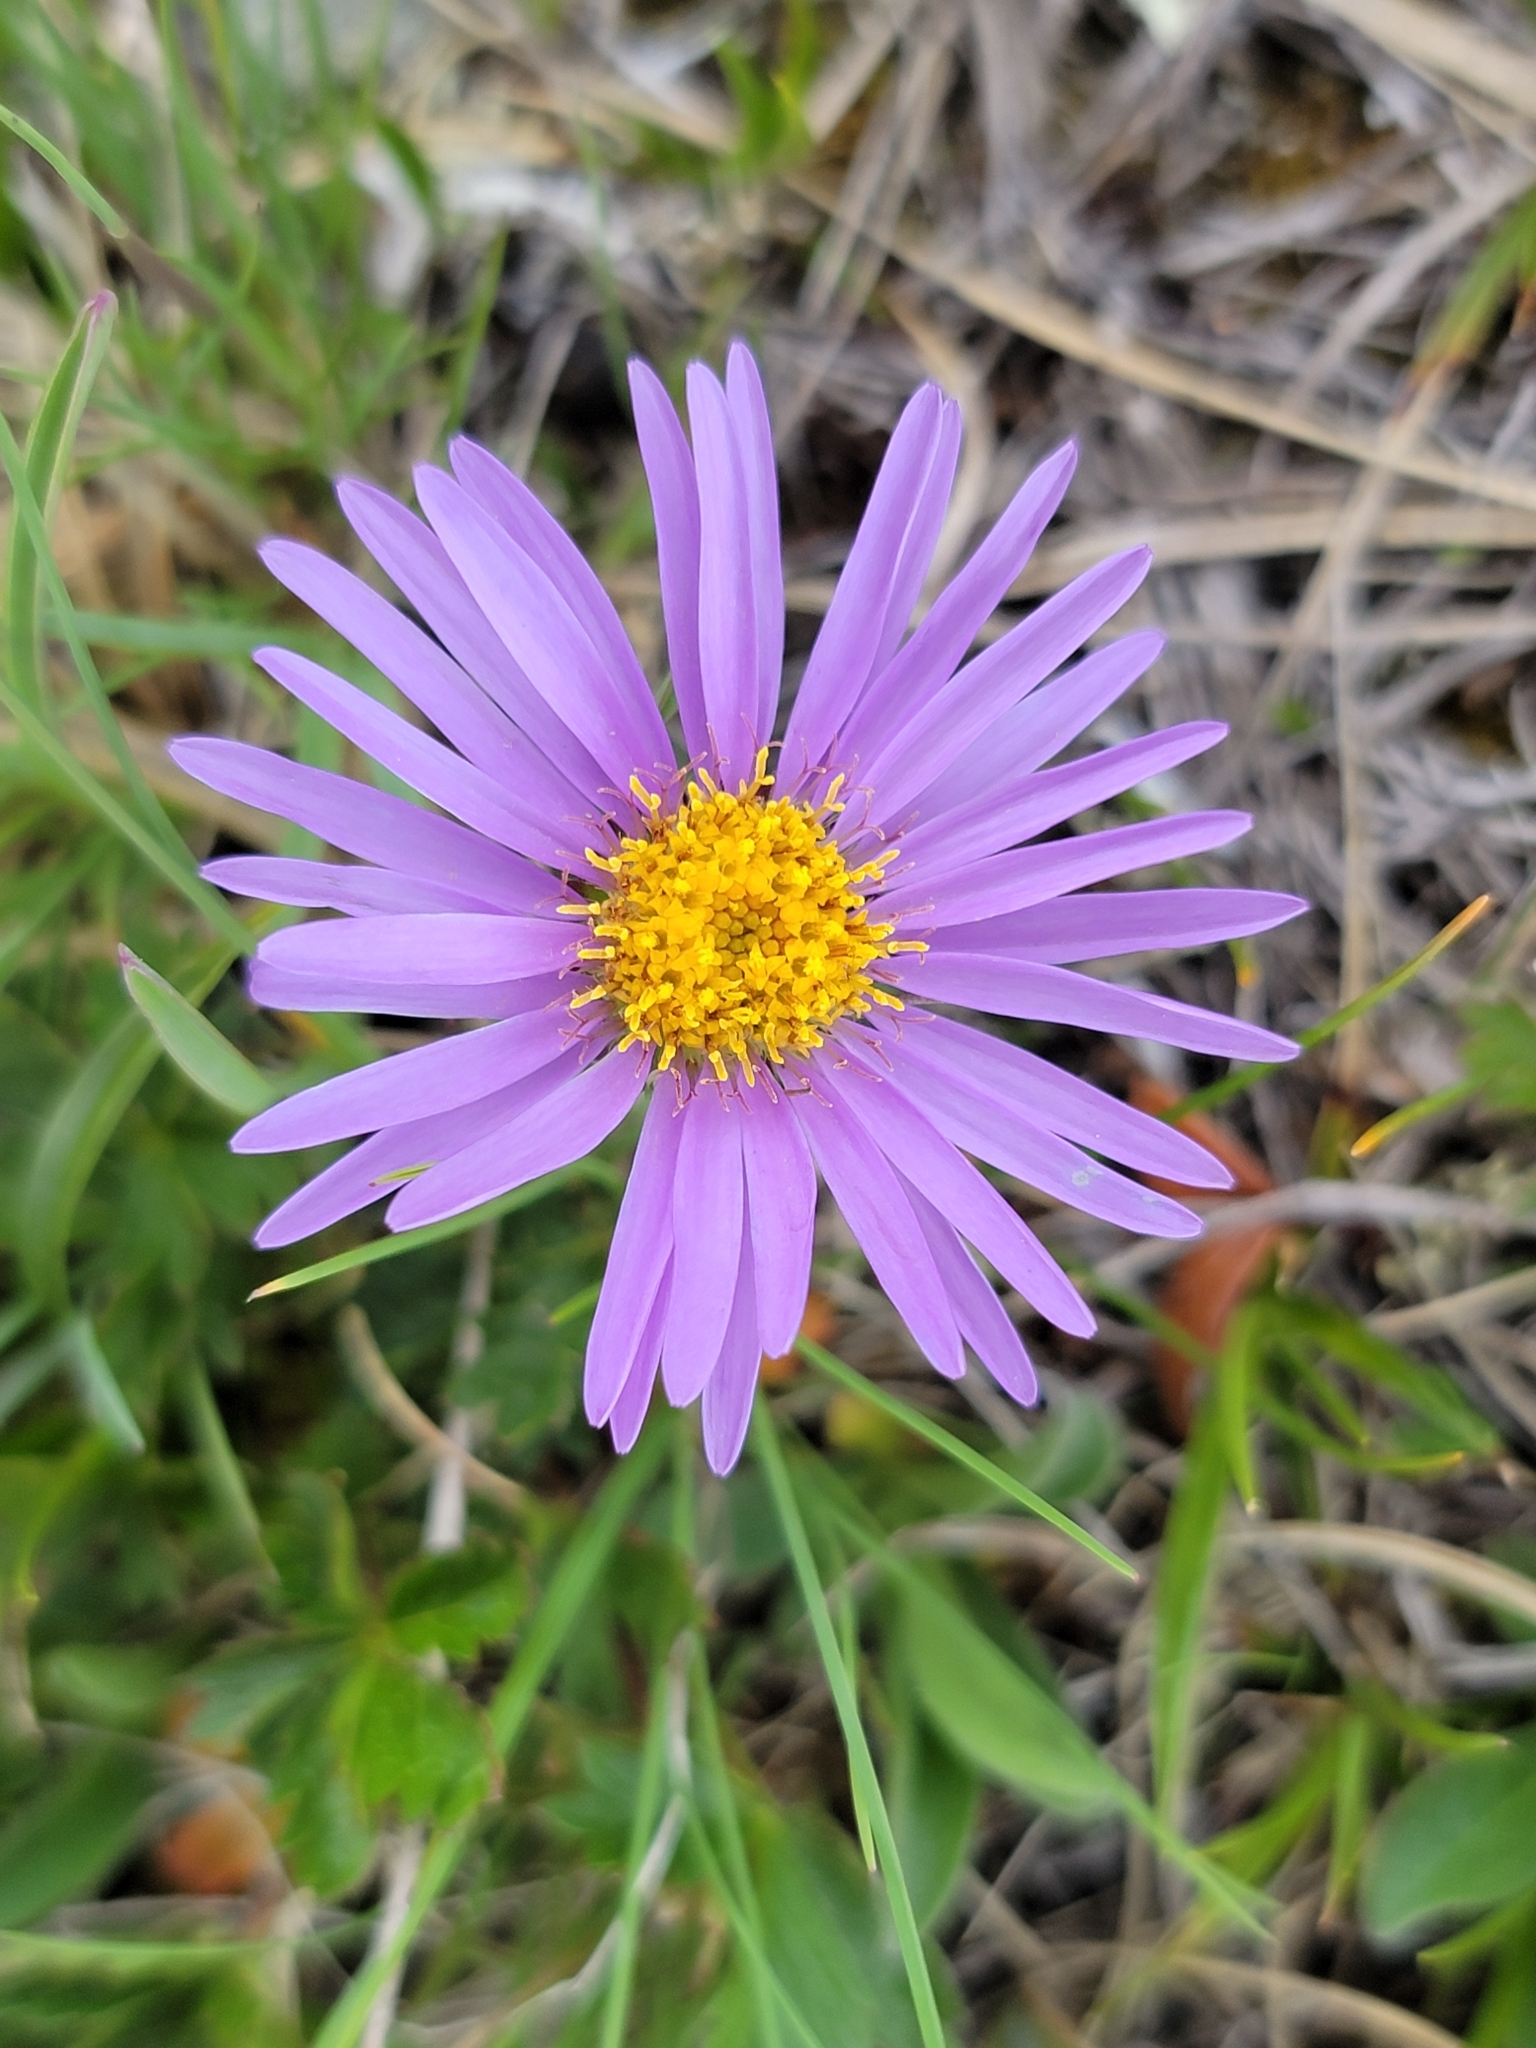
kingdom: Plantae
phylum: Tracheophyta
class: Magnoliopsida
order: Asterales
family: Asteraceae
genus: Aster
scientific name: Aster alpinus
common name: Alpine aster
